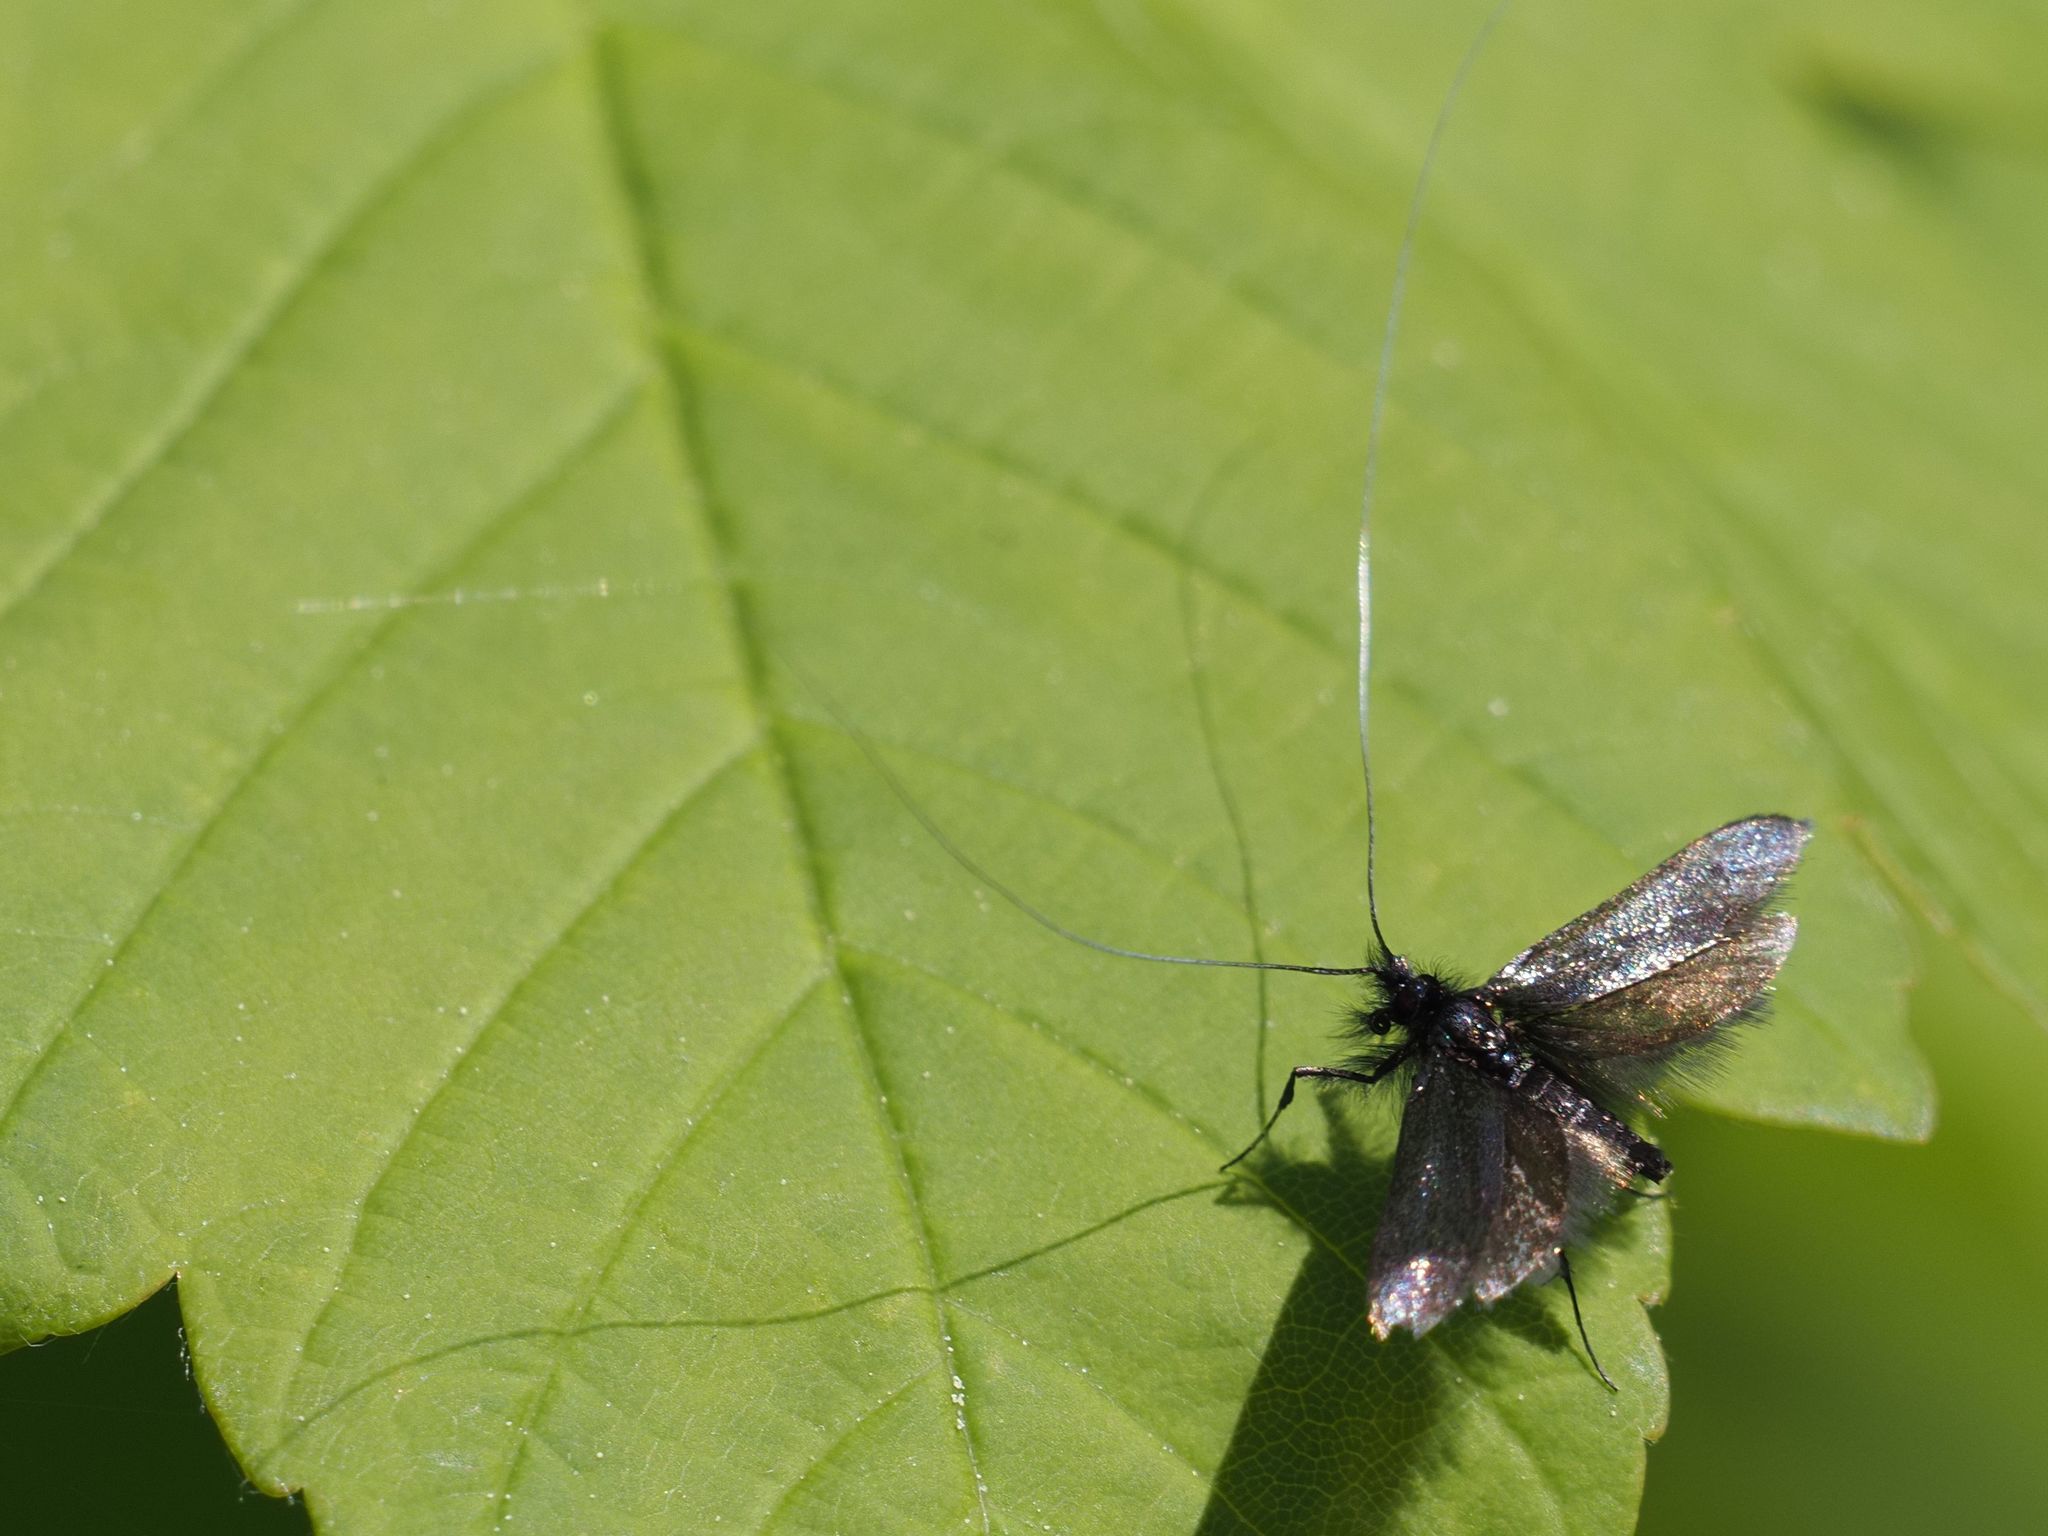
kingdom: Animalia
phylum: Arthropoda
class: Insecta
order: Lepidoptera
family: Adelidae
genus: Adela
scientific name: Adela viridella
